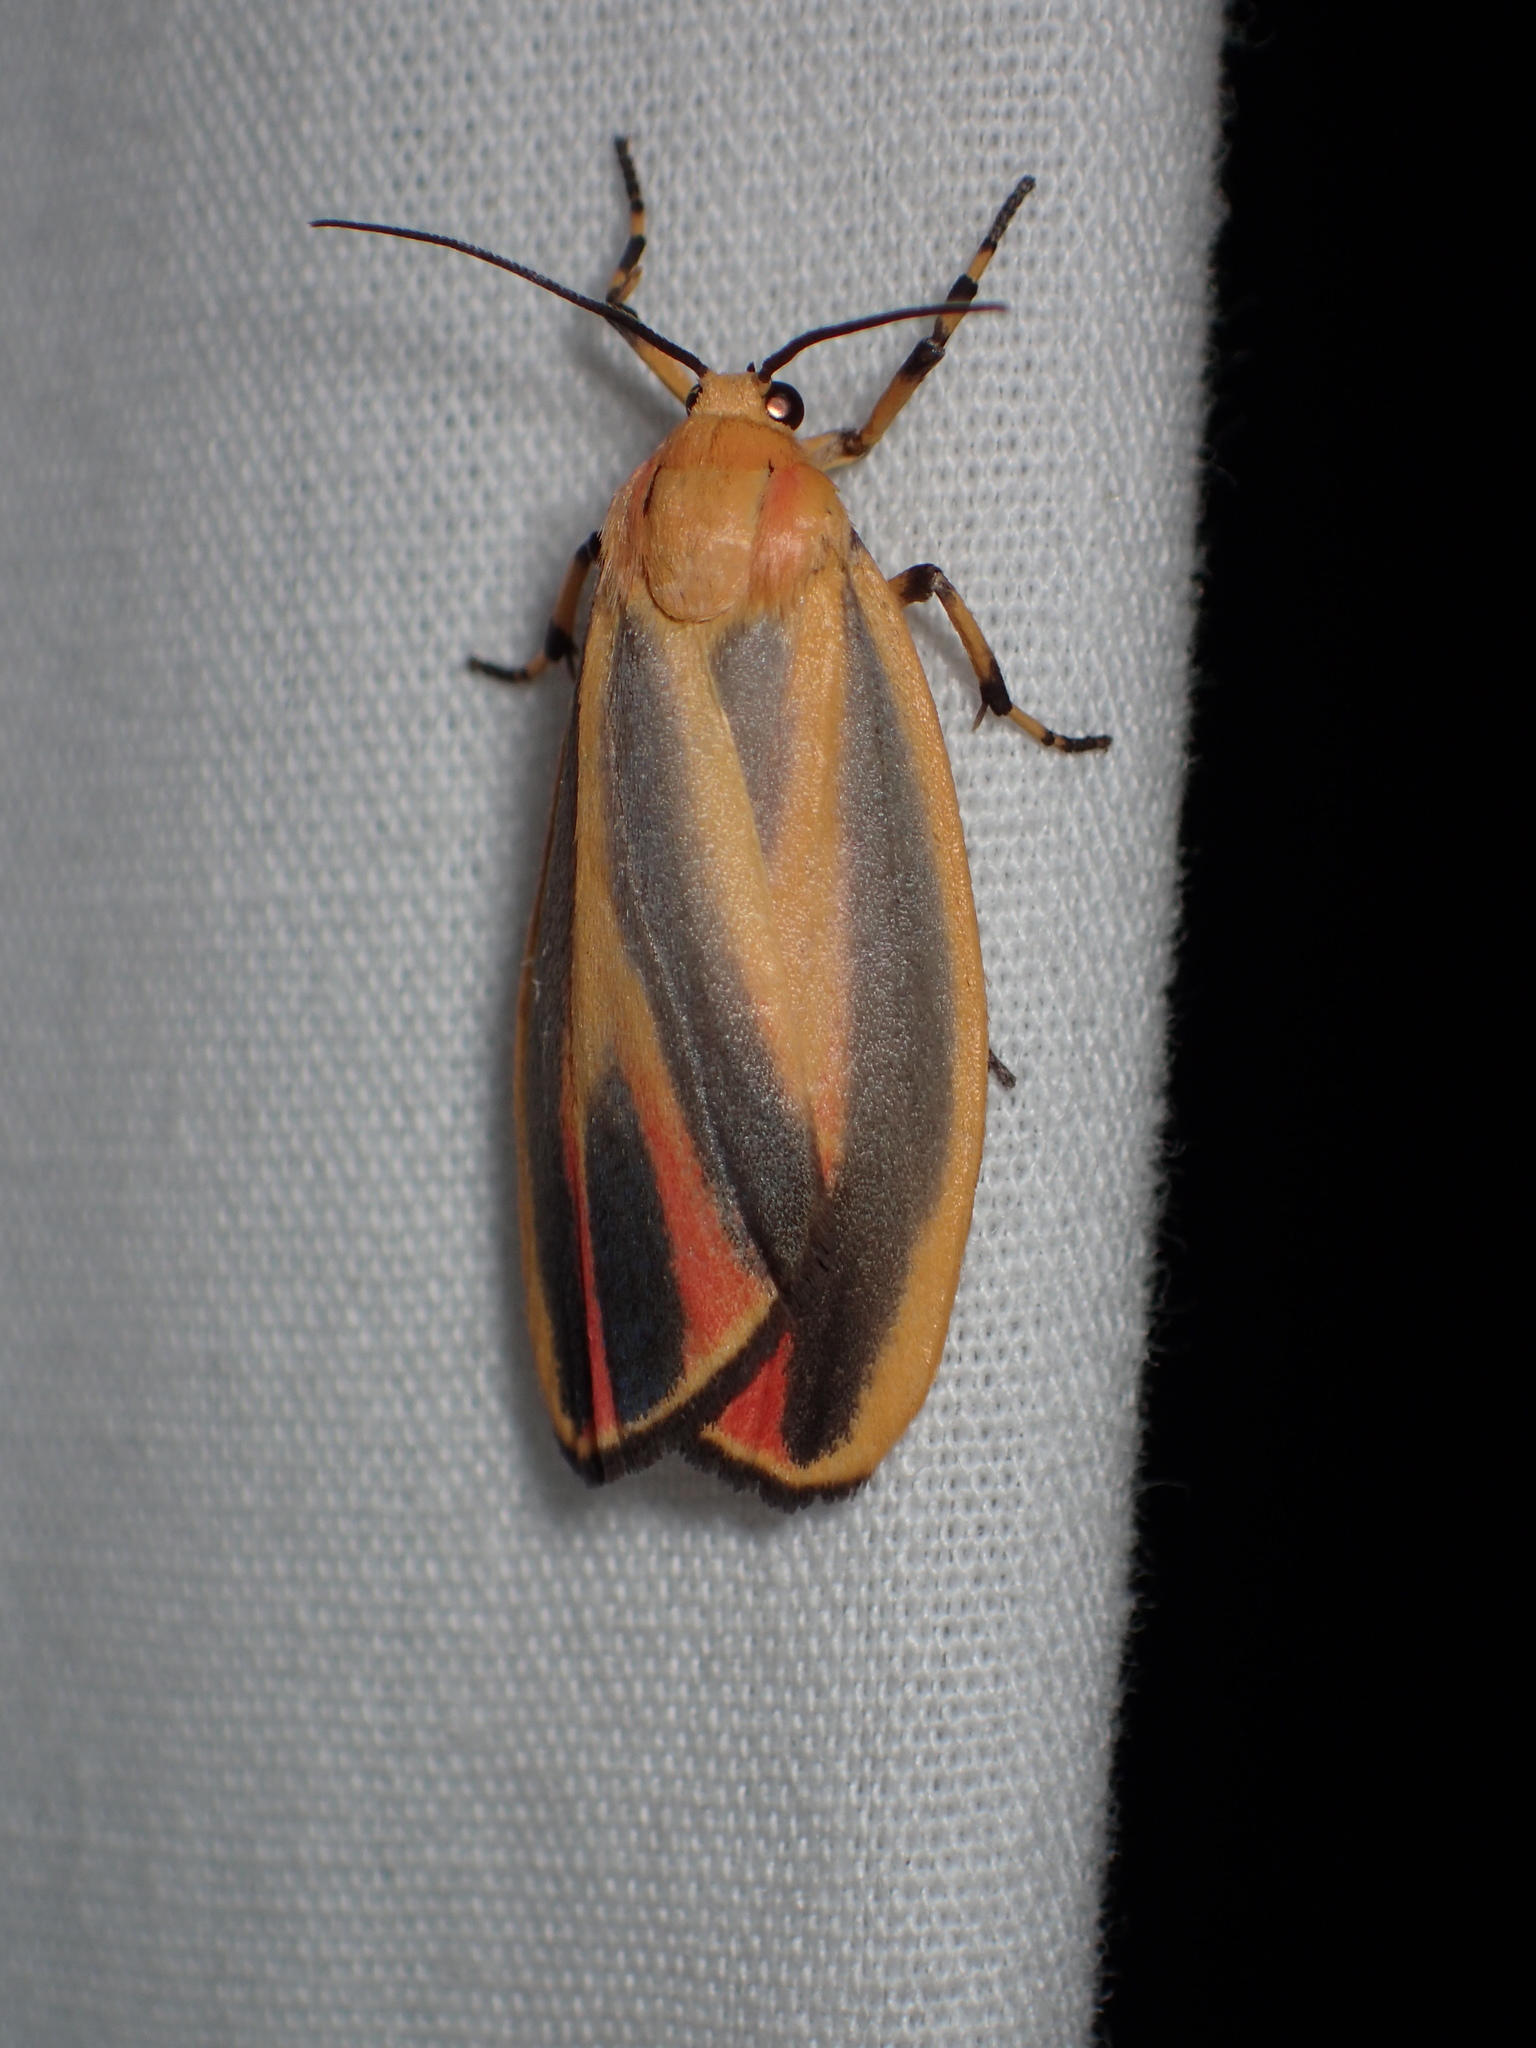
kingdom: Animalia
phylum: Arthropoda
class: Insecta
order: Lepidoptera
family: Erebidae
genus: Hypoprepia
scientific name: Hypoprepia fucosa
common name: Painted lichen moth
